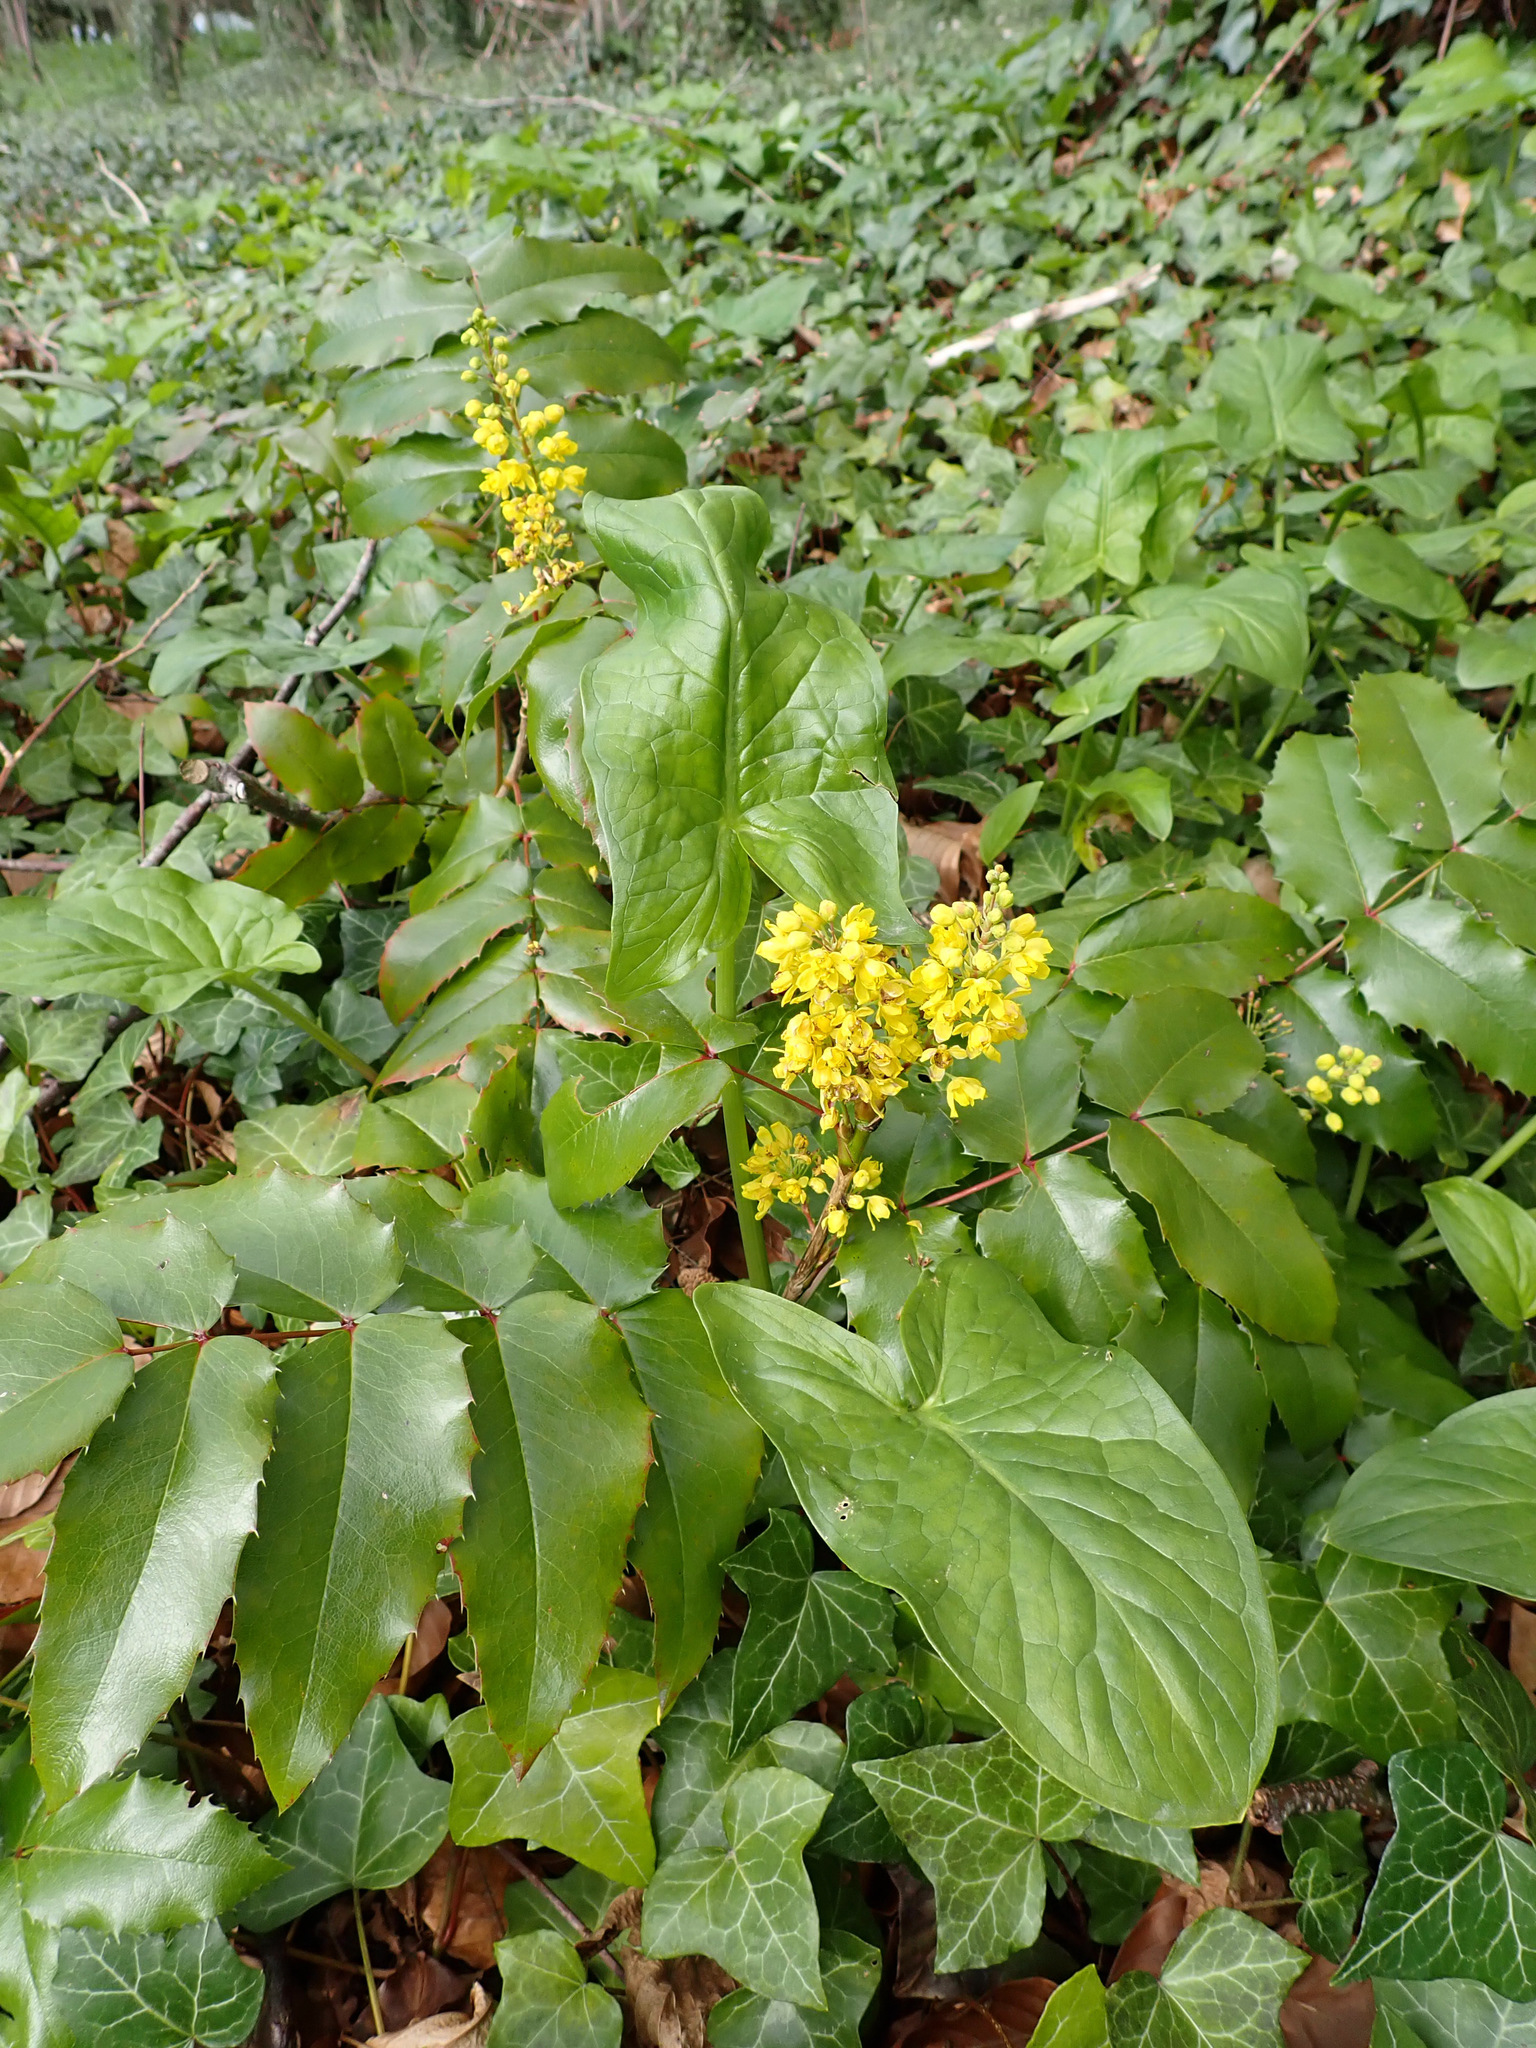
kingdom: Plantae
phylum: Tracheophyta
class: Magnoliopsida
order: Ranunculales
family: Berberidaceae
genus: Mahonia
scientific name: Mahonia aquifolium
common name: Oregon-grape
